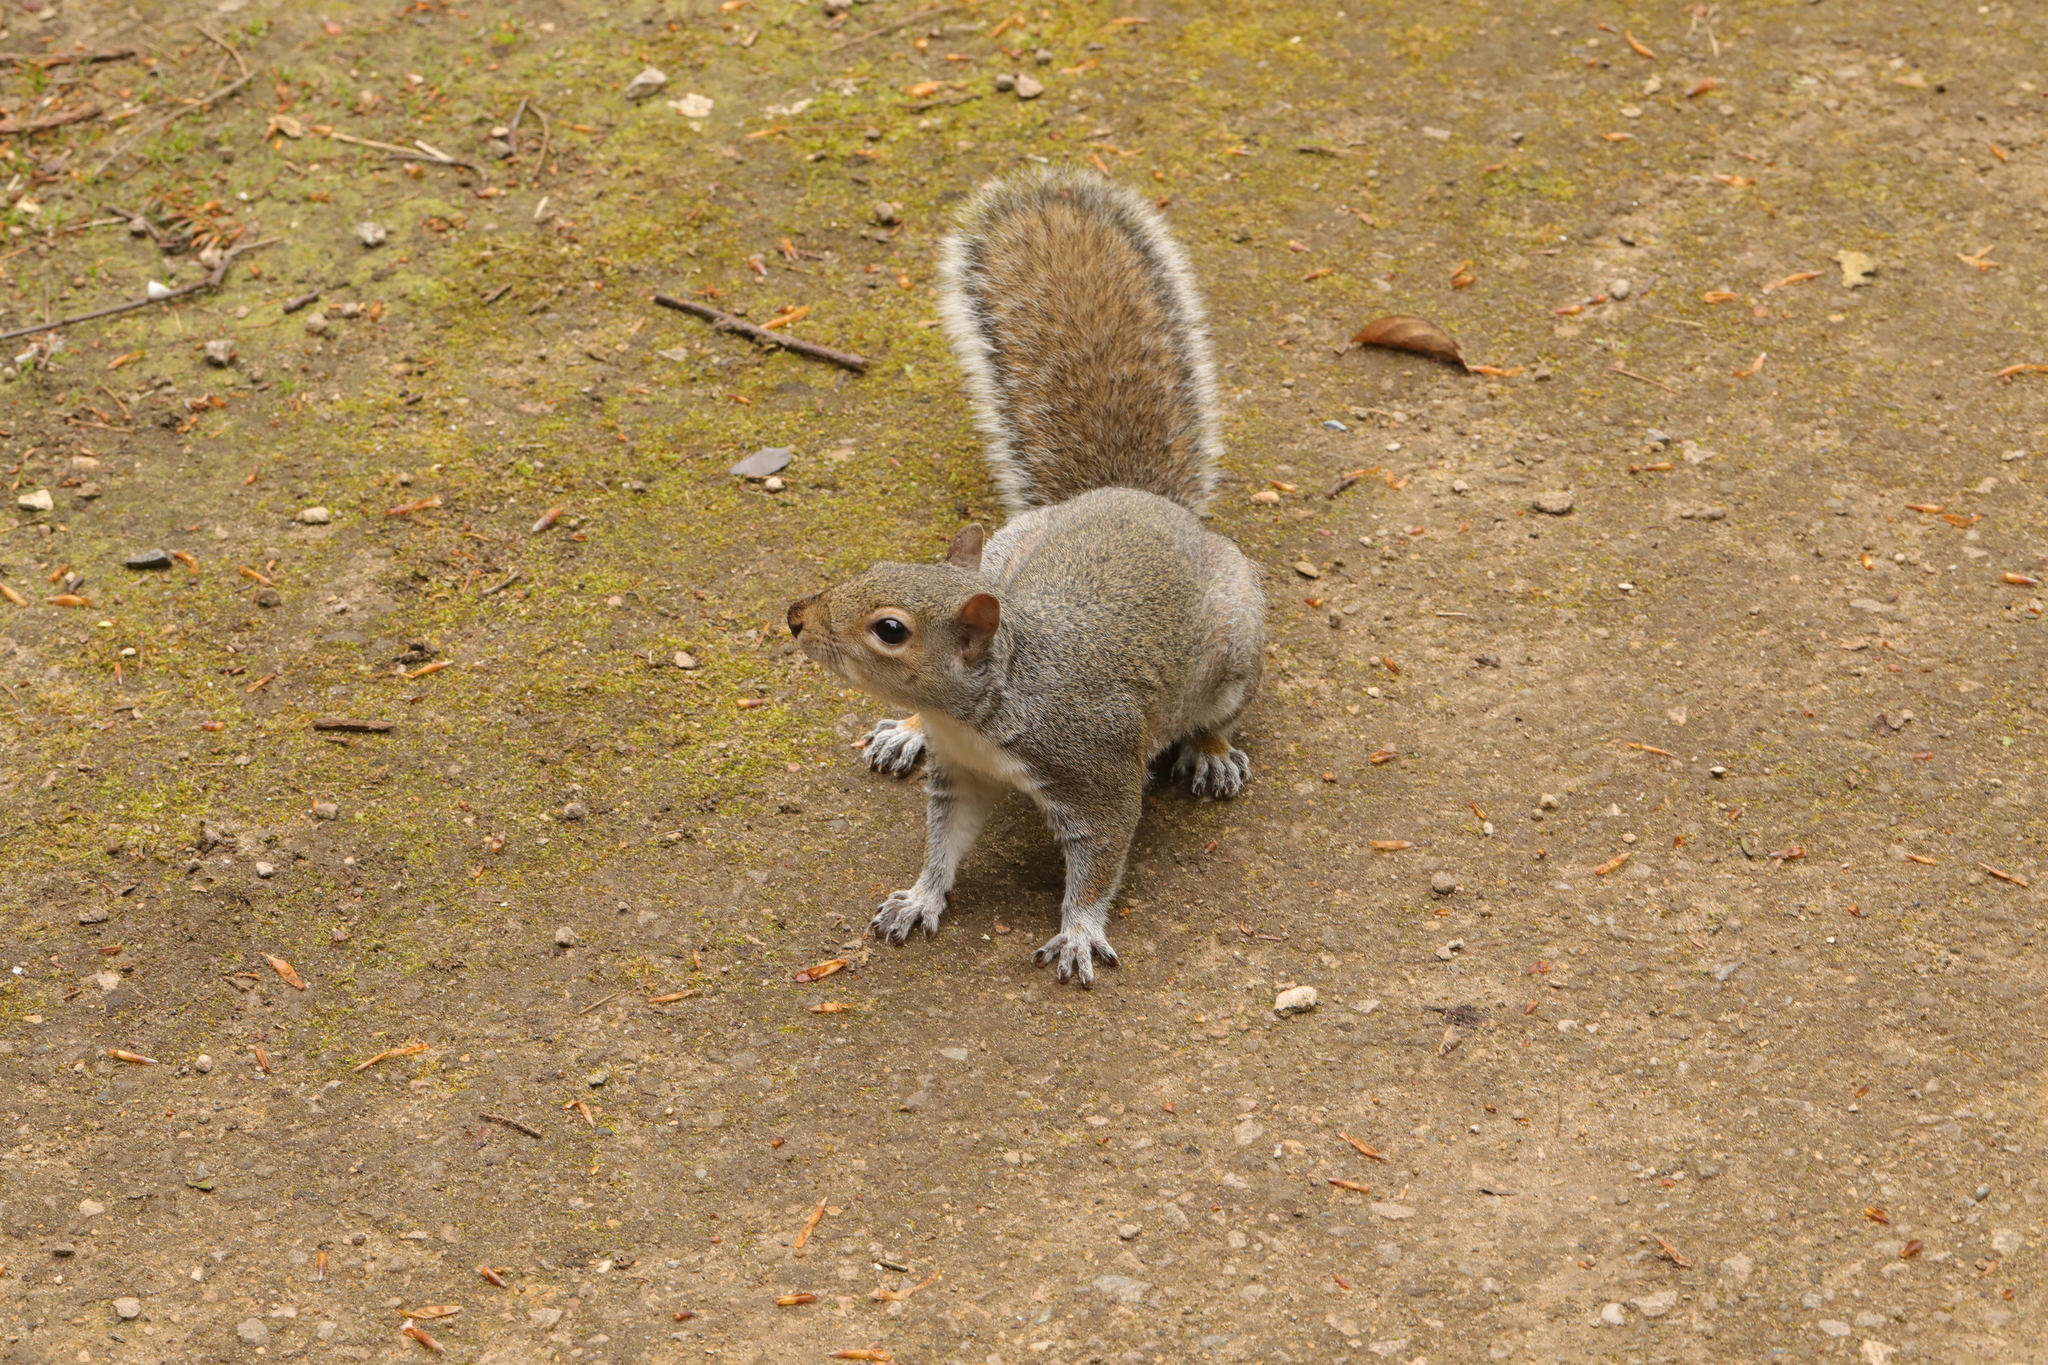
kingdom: Animalia
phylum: Chordata
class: Mammalia
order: Rodentia
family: Sciuridae
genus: Sciurus
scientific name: Sciurus carolinensis
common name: Eastern gray squirrel
